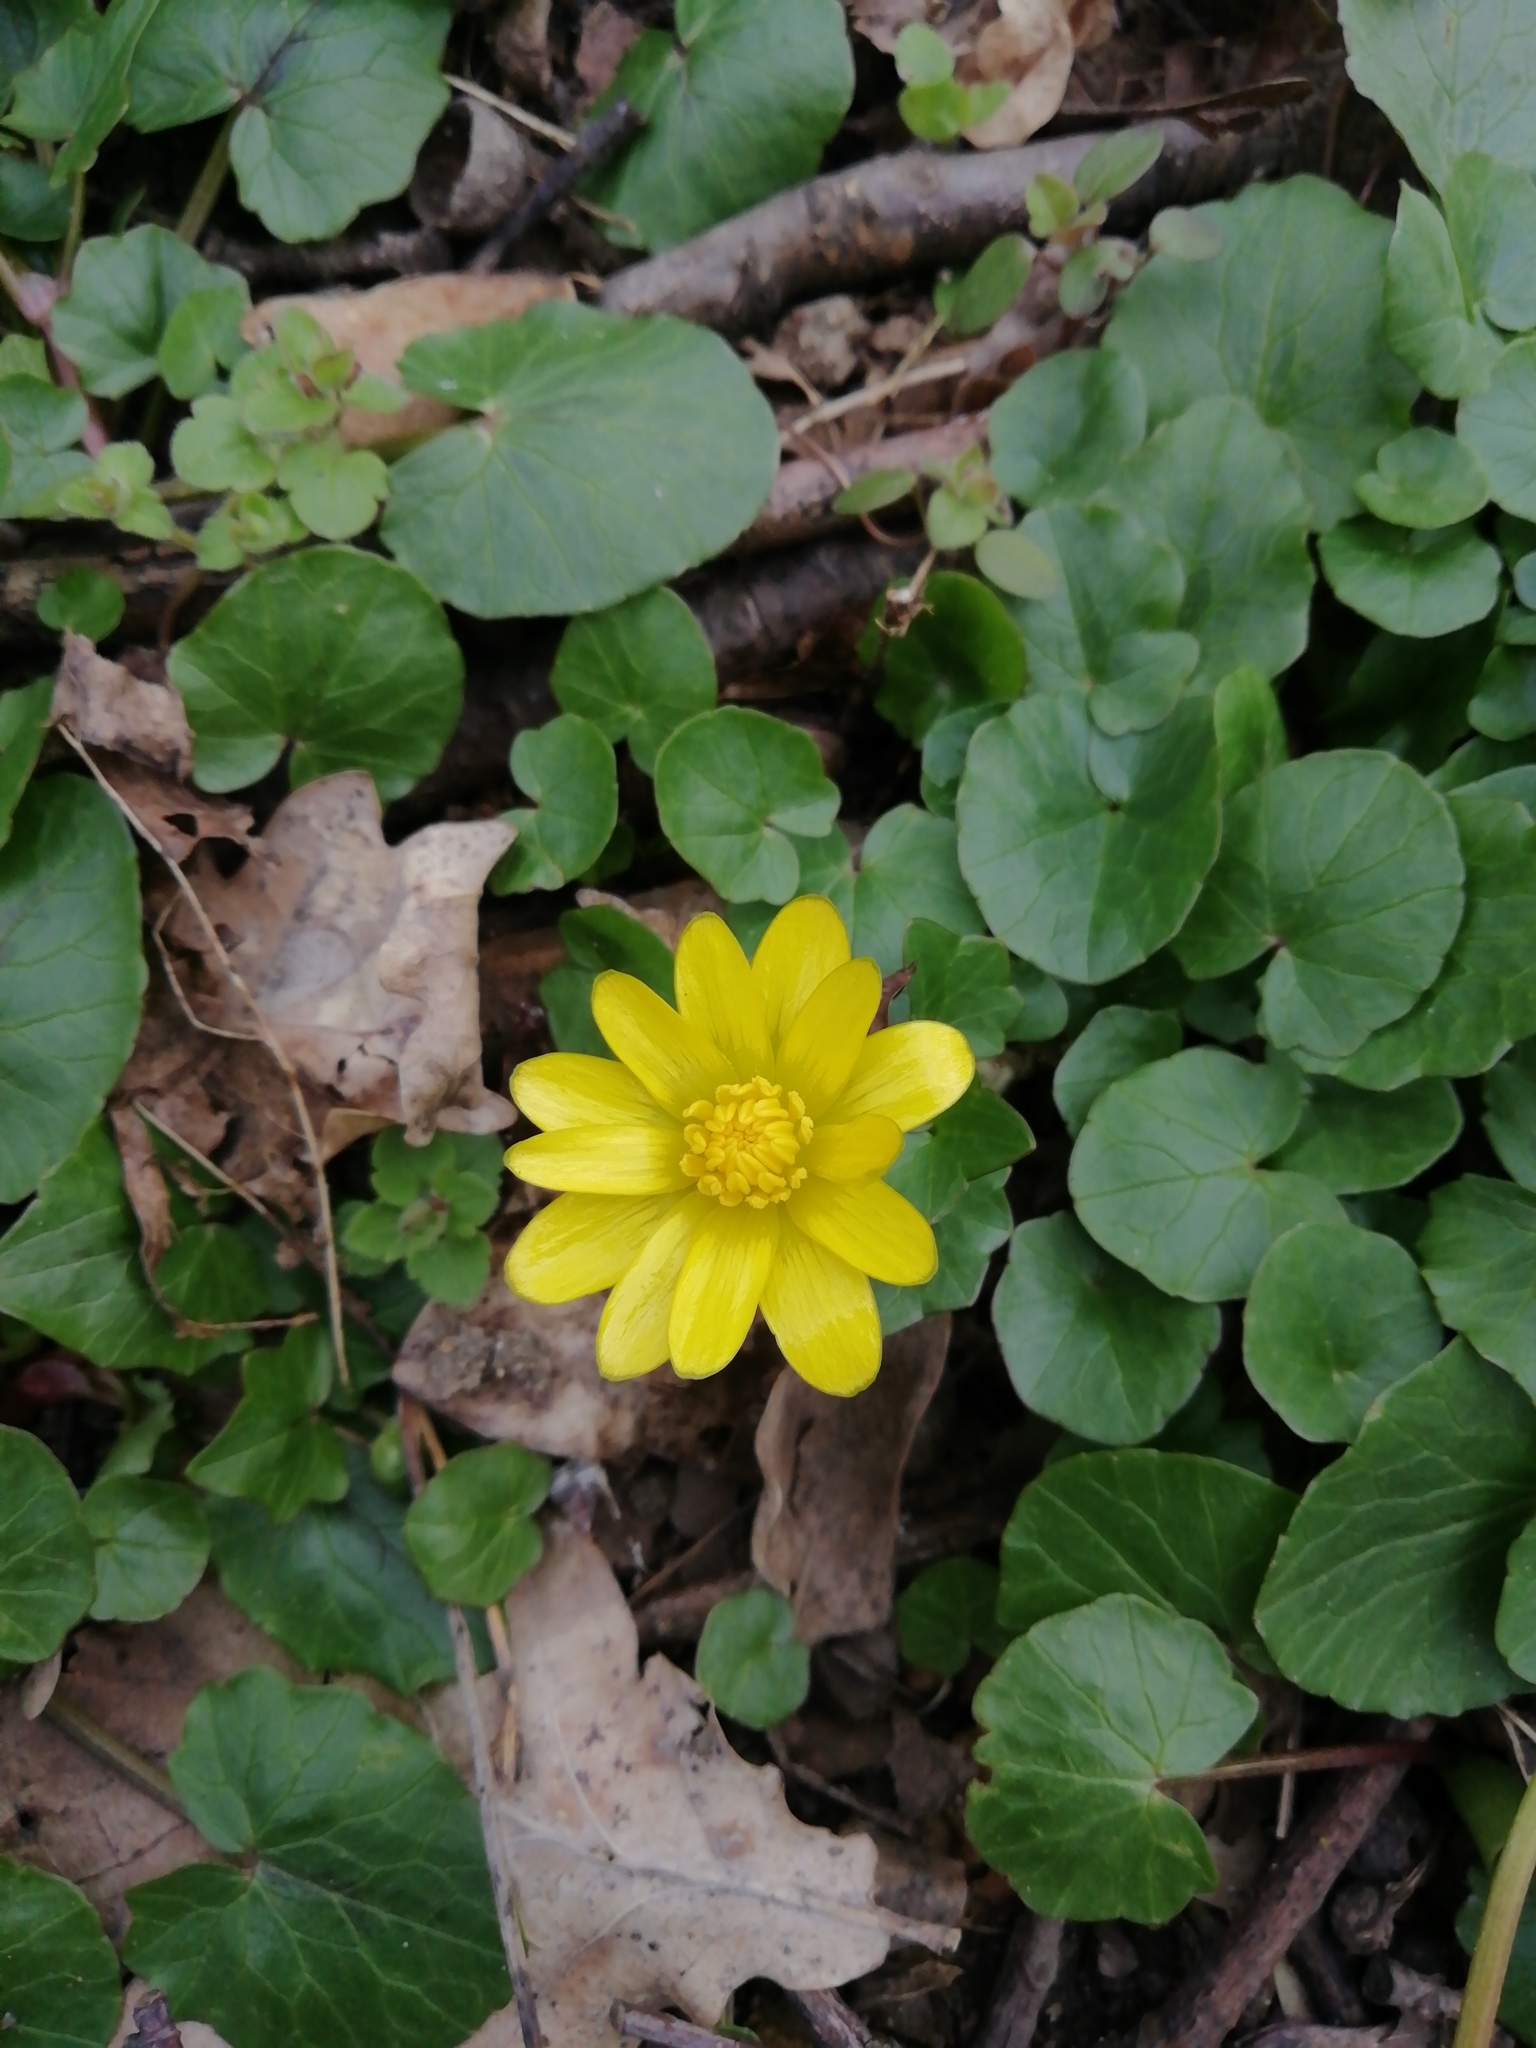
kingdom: Plantae
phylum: Tracheophyta
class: Magnoliopsida
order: Ranunculales
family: Ranunculaceae
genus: Ficaria
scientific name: Ficaria verna
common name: Lesser celandine
